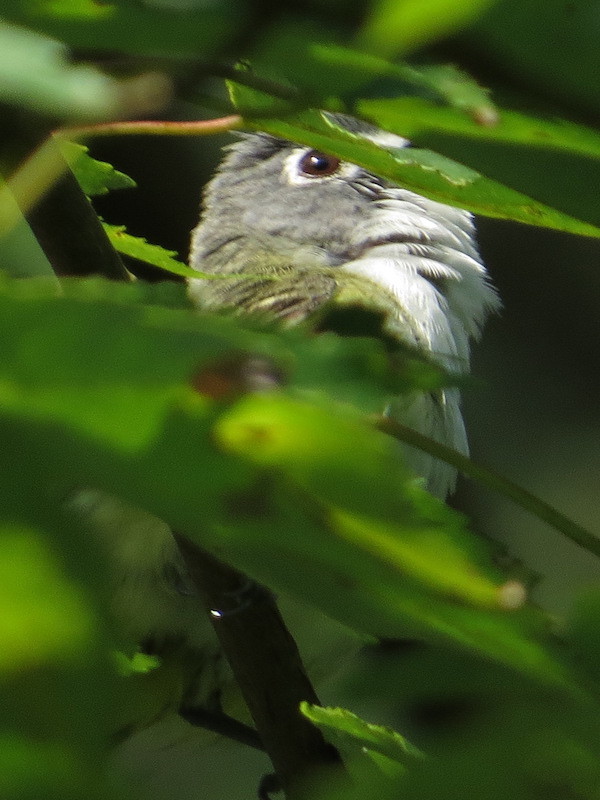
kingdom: Animalia
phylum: Chordata
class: Aves
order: Passeriformes
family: Vireonidae
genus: Vireo
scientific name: Vireo solitarius
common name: Blue-headed vireo
